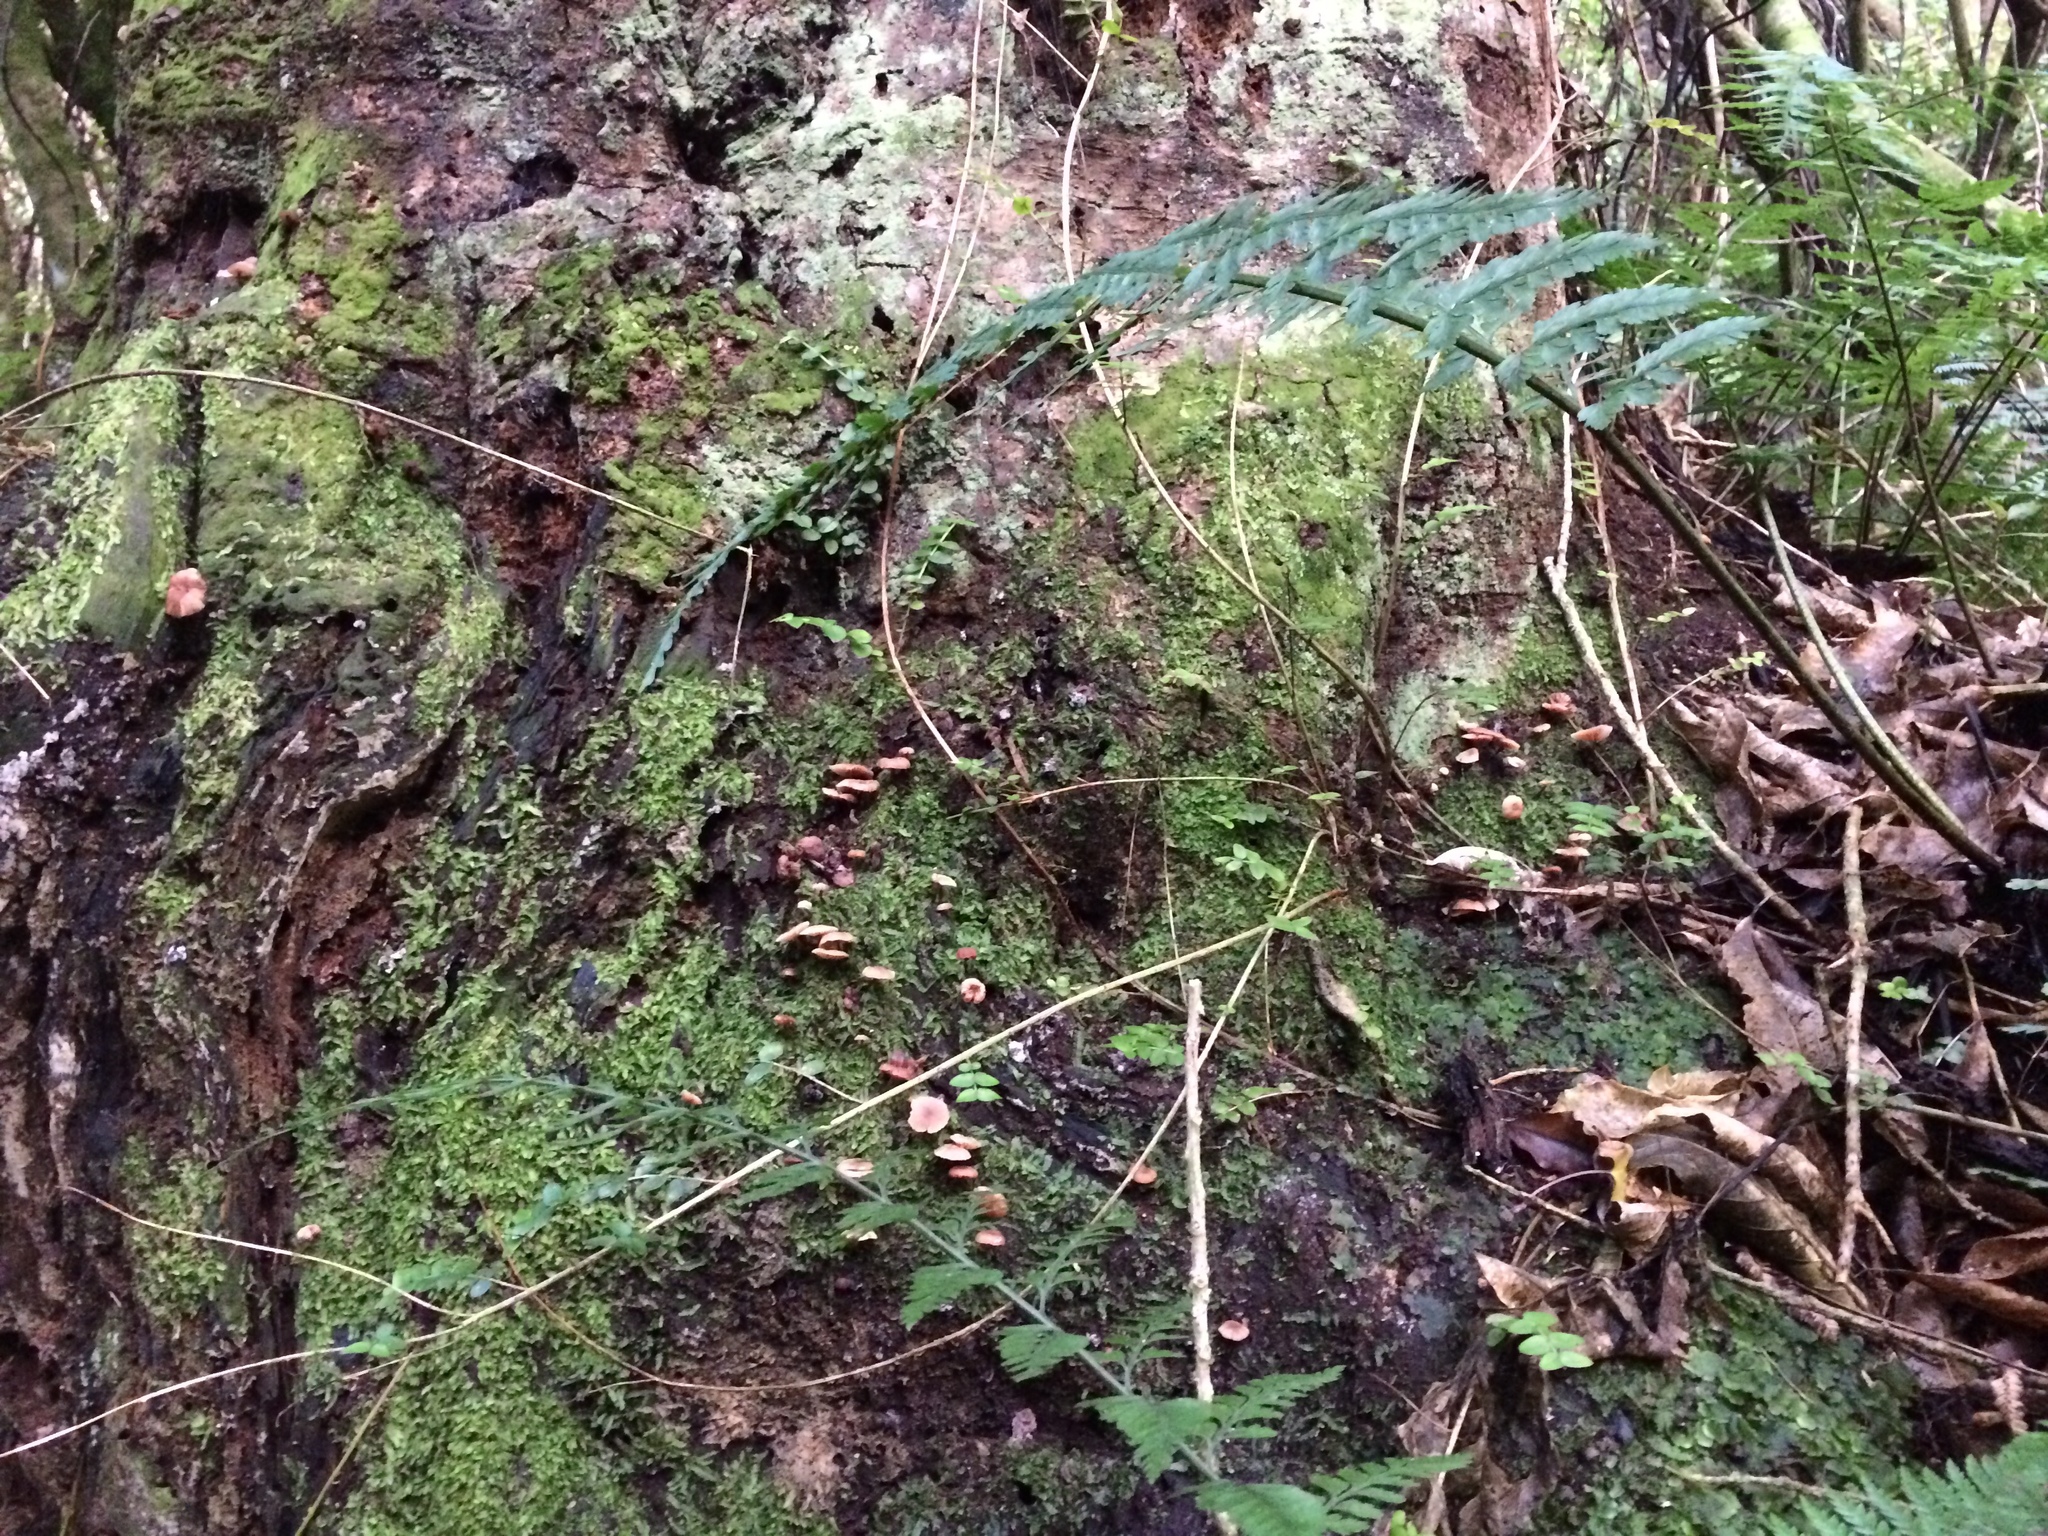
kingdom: Fungi
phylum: Basidiomycota
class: Agaricomycetes
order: Agaricales
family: Omphalotaceae
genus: Mycetinis
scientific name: Mycetinis curraniae
